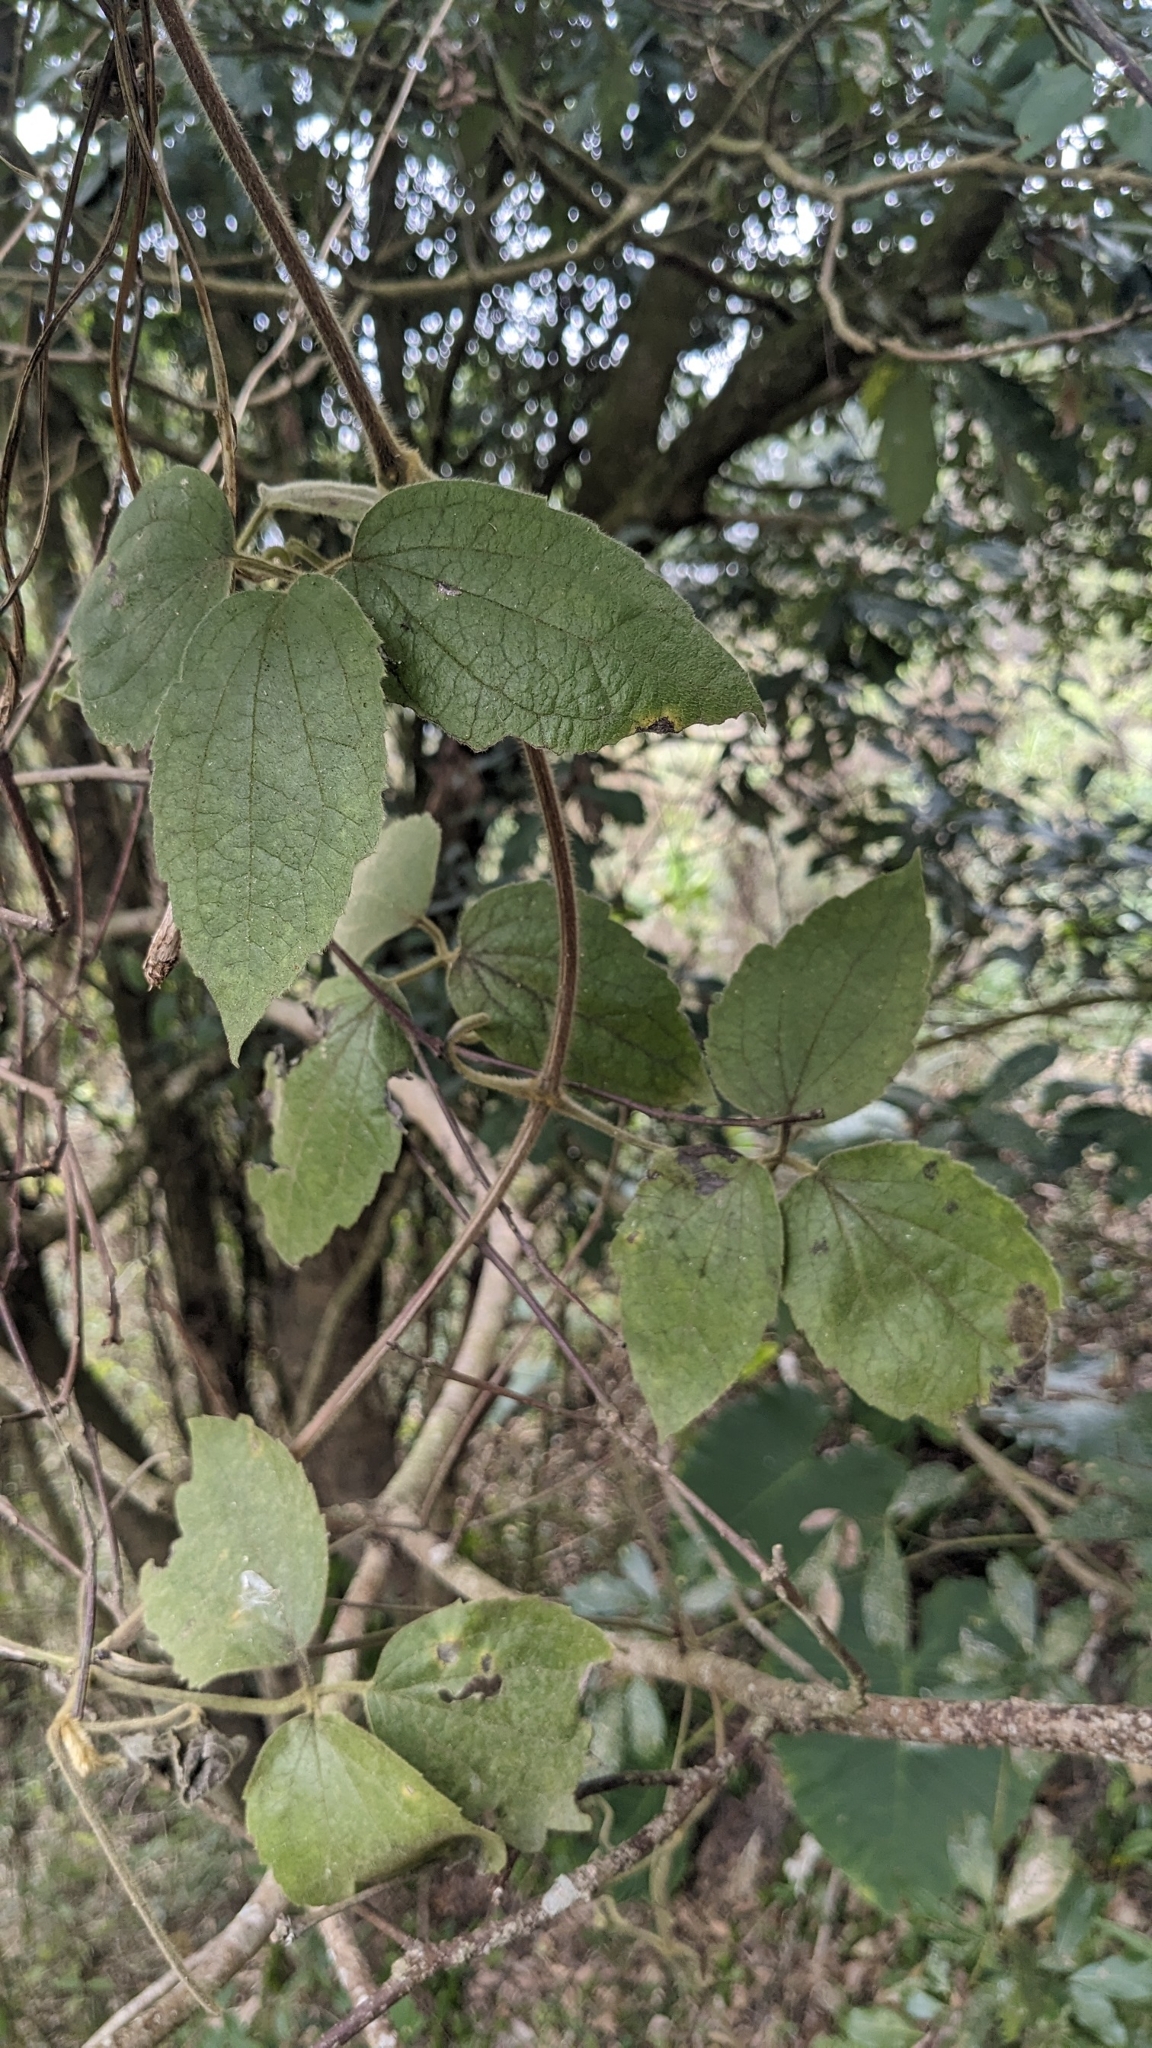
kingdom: Plantae
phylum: Tracheophyta
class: Magnoliopsida
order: Ranunculales
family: Ranunculaceae
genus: Clematis
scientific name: Clematis leschenaultiana
